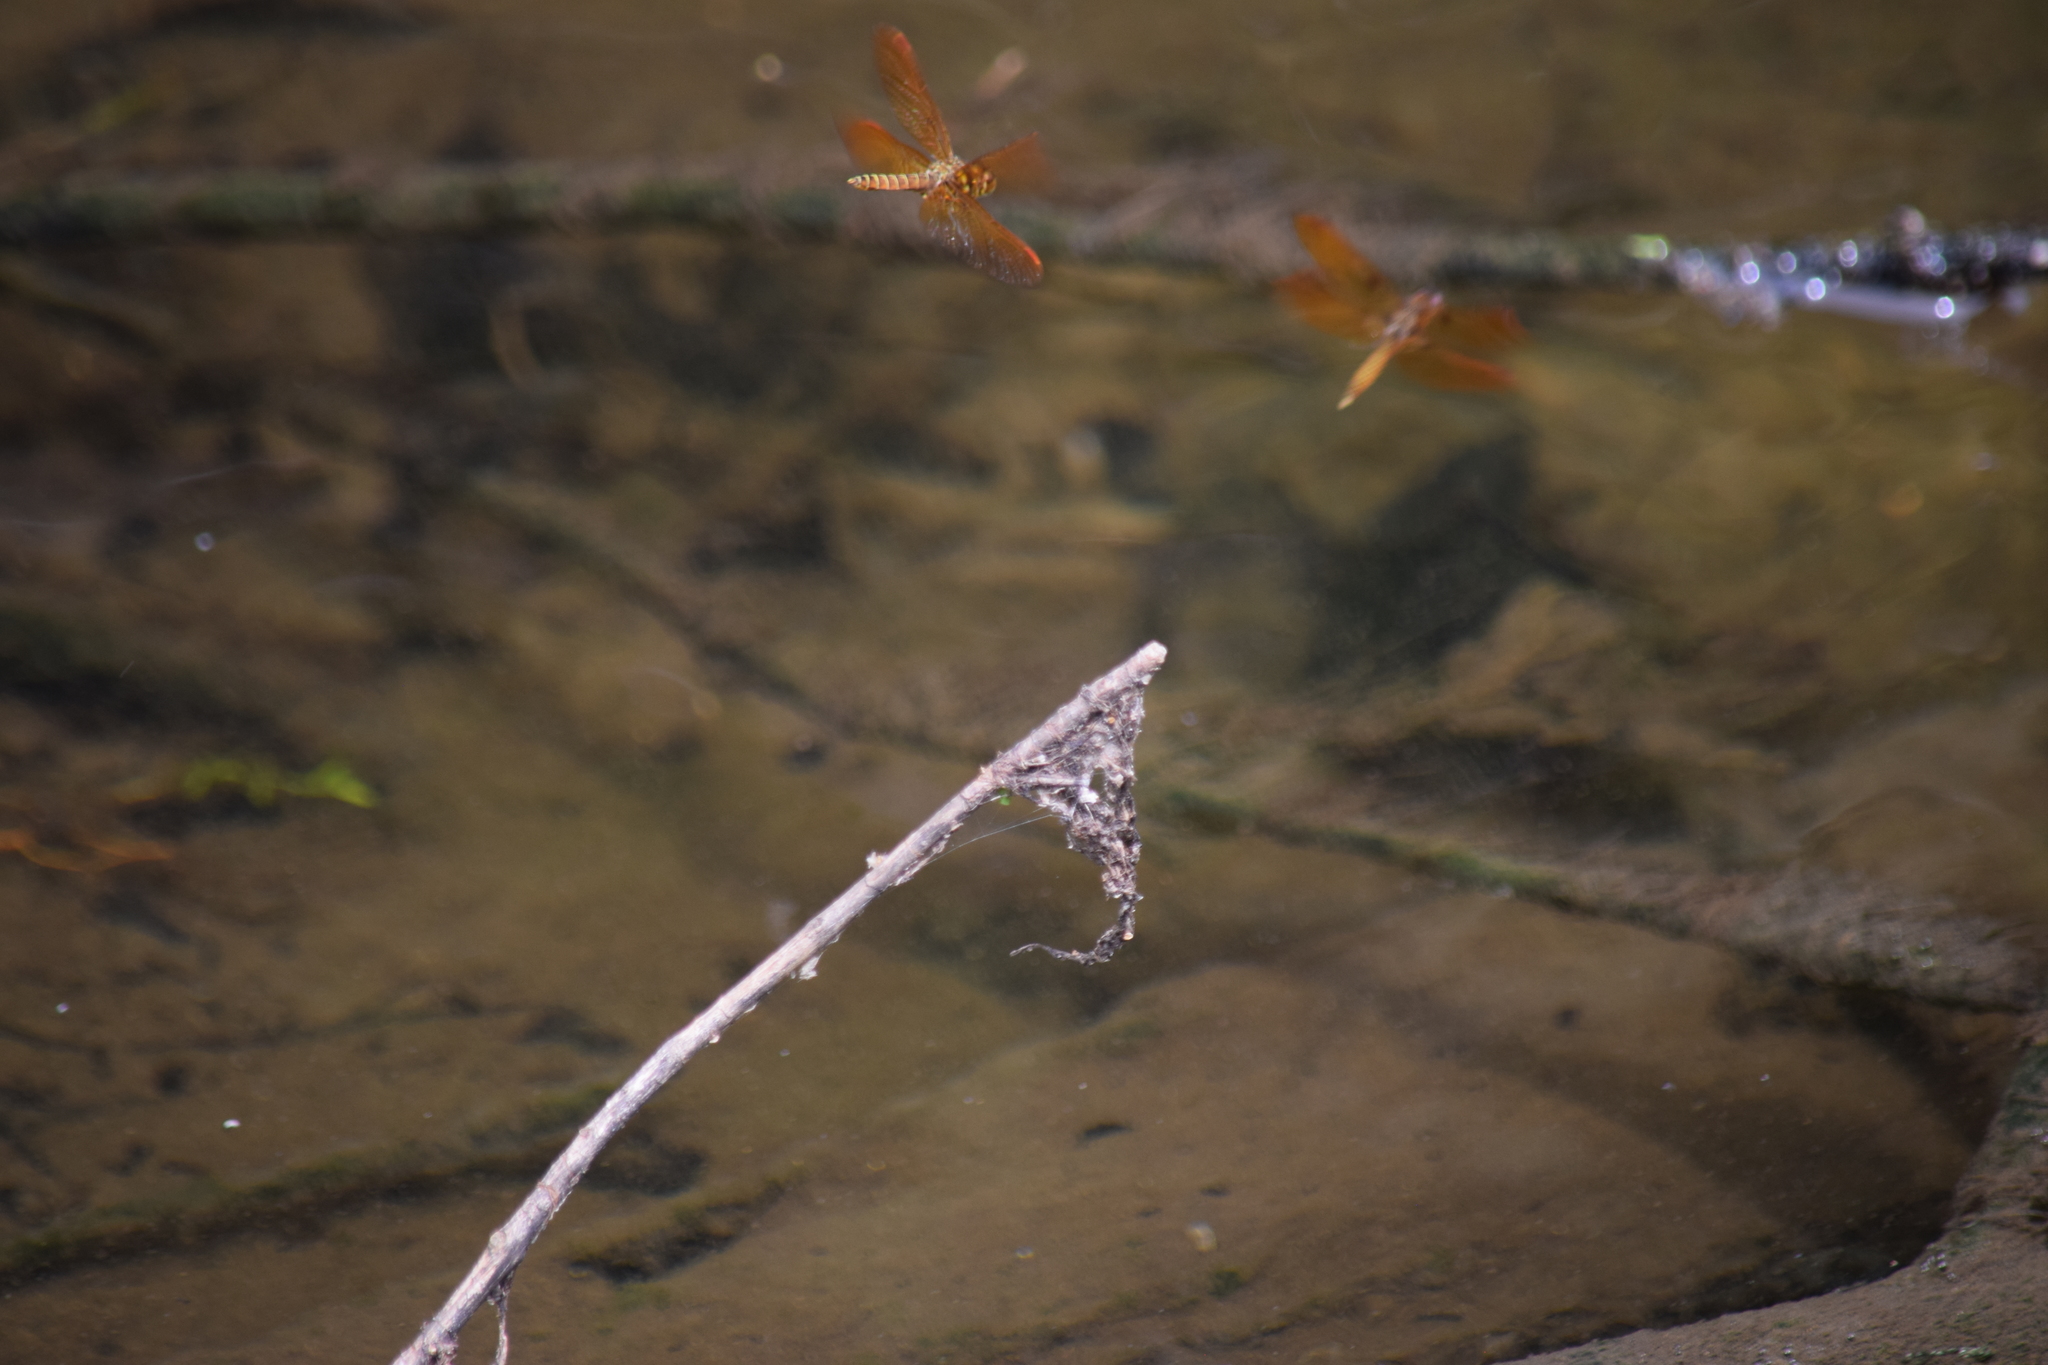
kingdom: Animalia
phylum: Arthropoda
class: Insecta
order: Odonata
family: Libellulidae
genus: Perithemis
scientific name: Perithemis tenera
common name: Eastern amberwing
